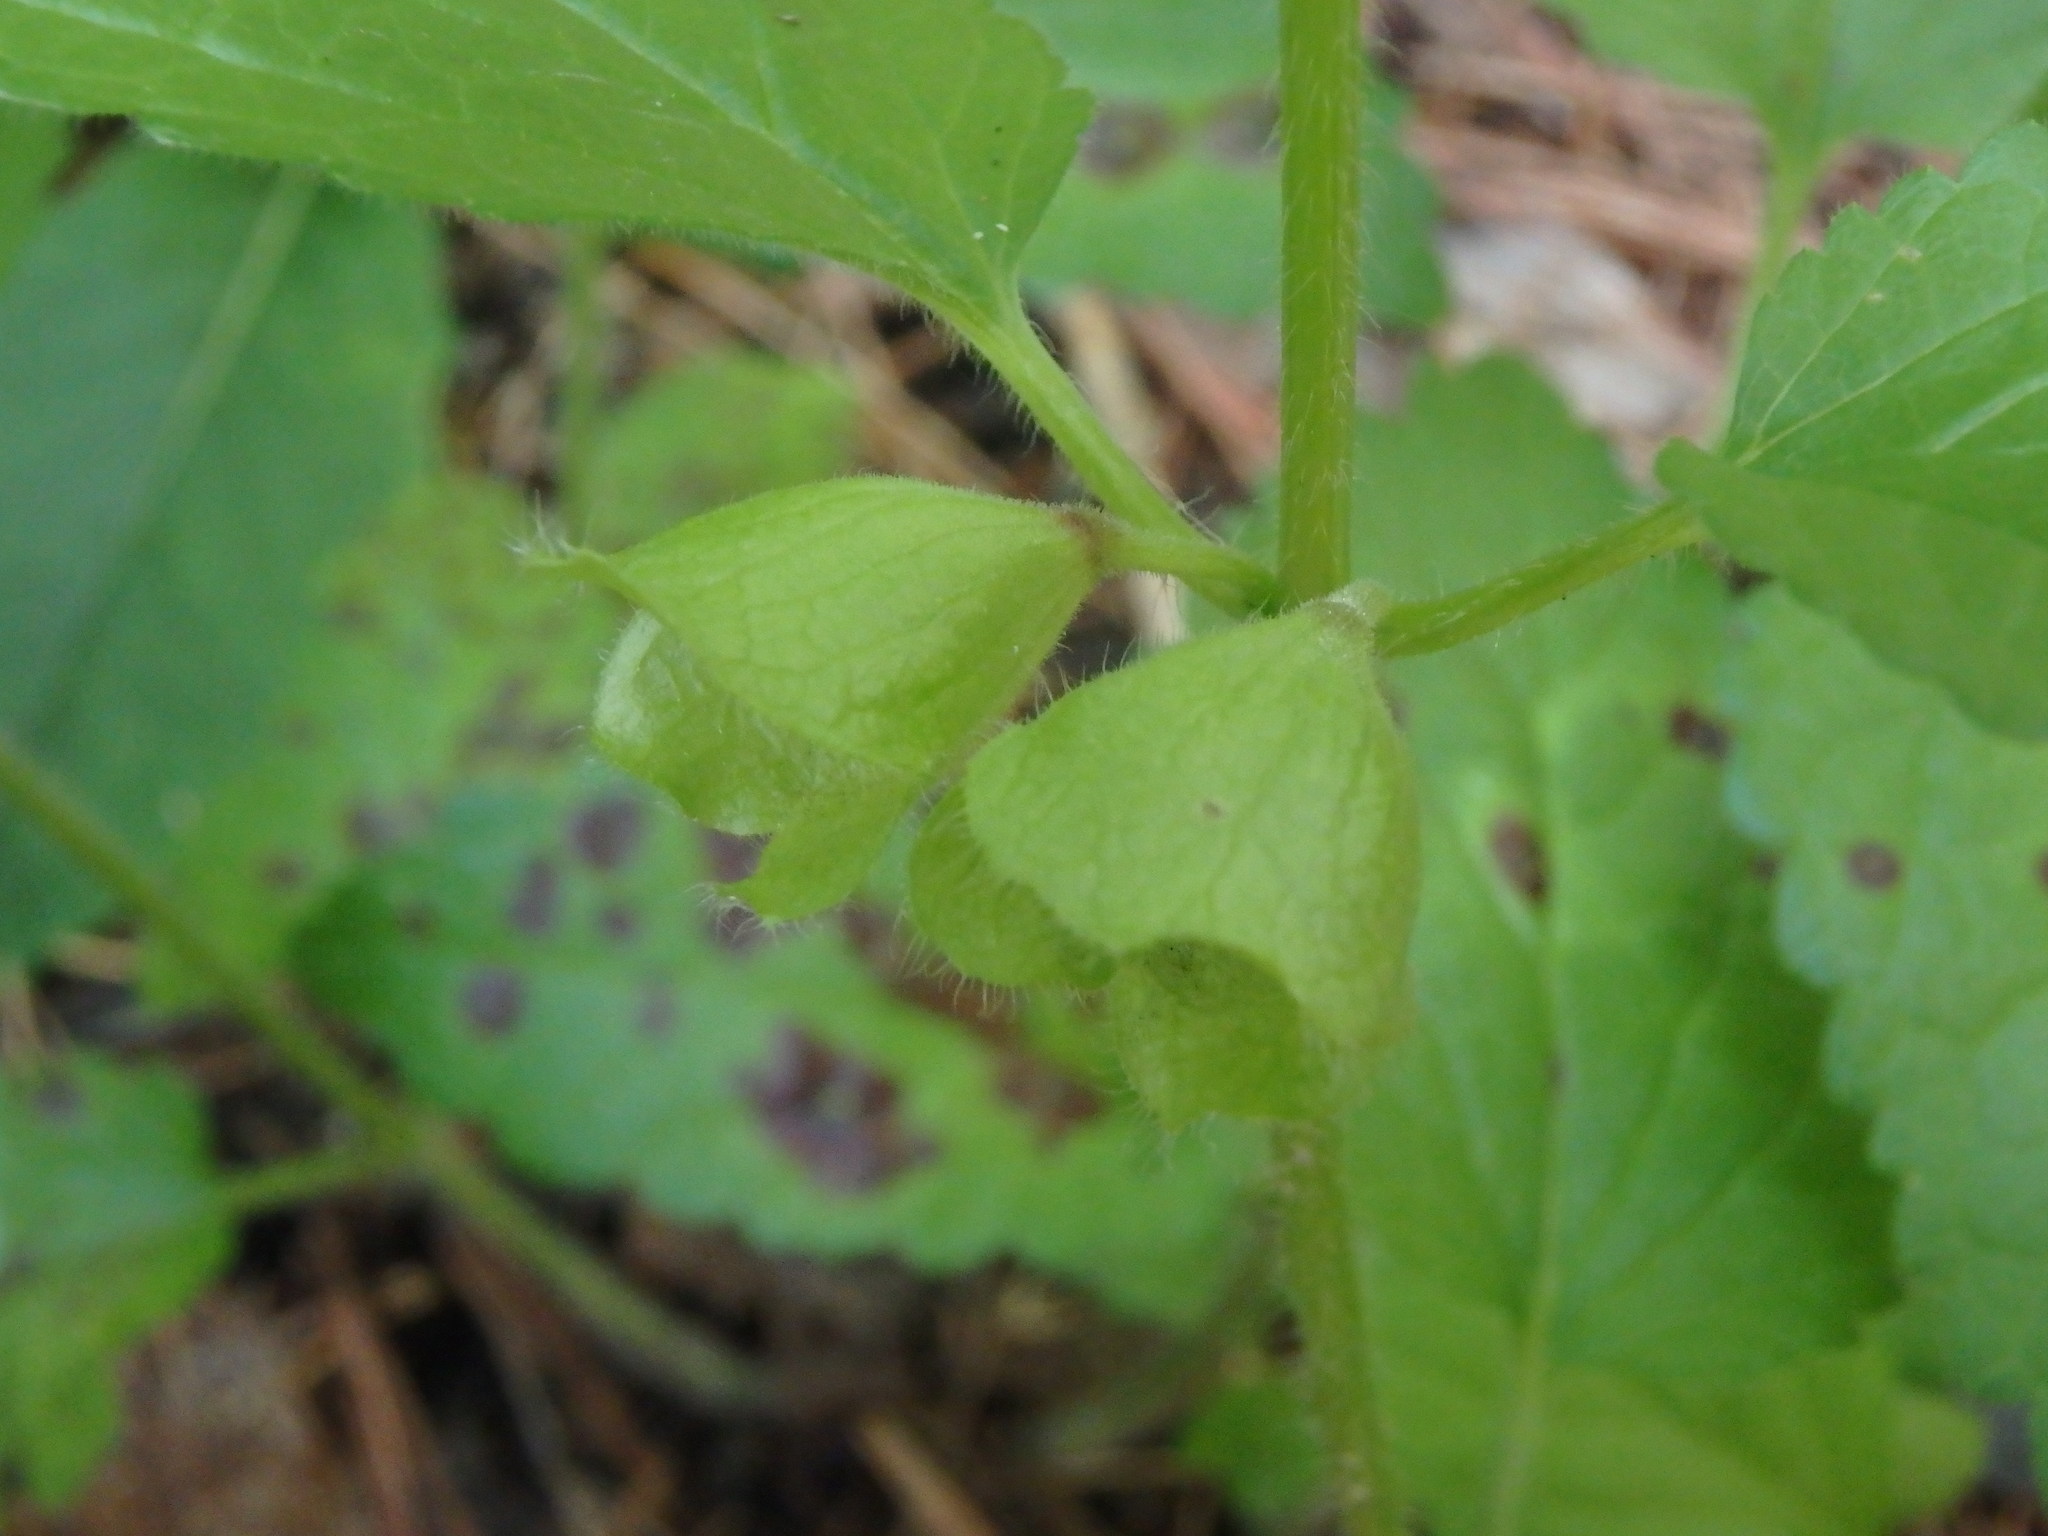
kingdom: Plantae
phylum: Tracheophyta
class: Magnoliopsida
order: Lamiales
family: Lamiaceae
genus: Melittis
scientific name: Melittis melissophyllum
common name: Bastard balm
